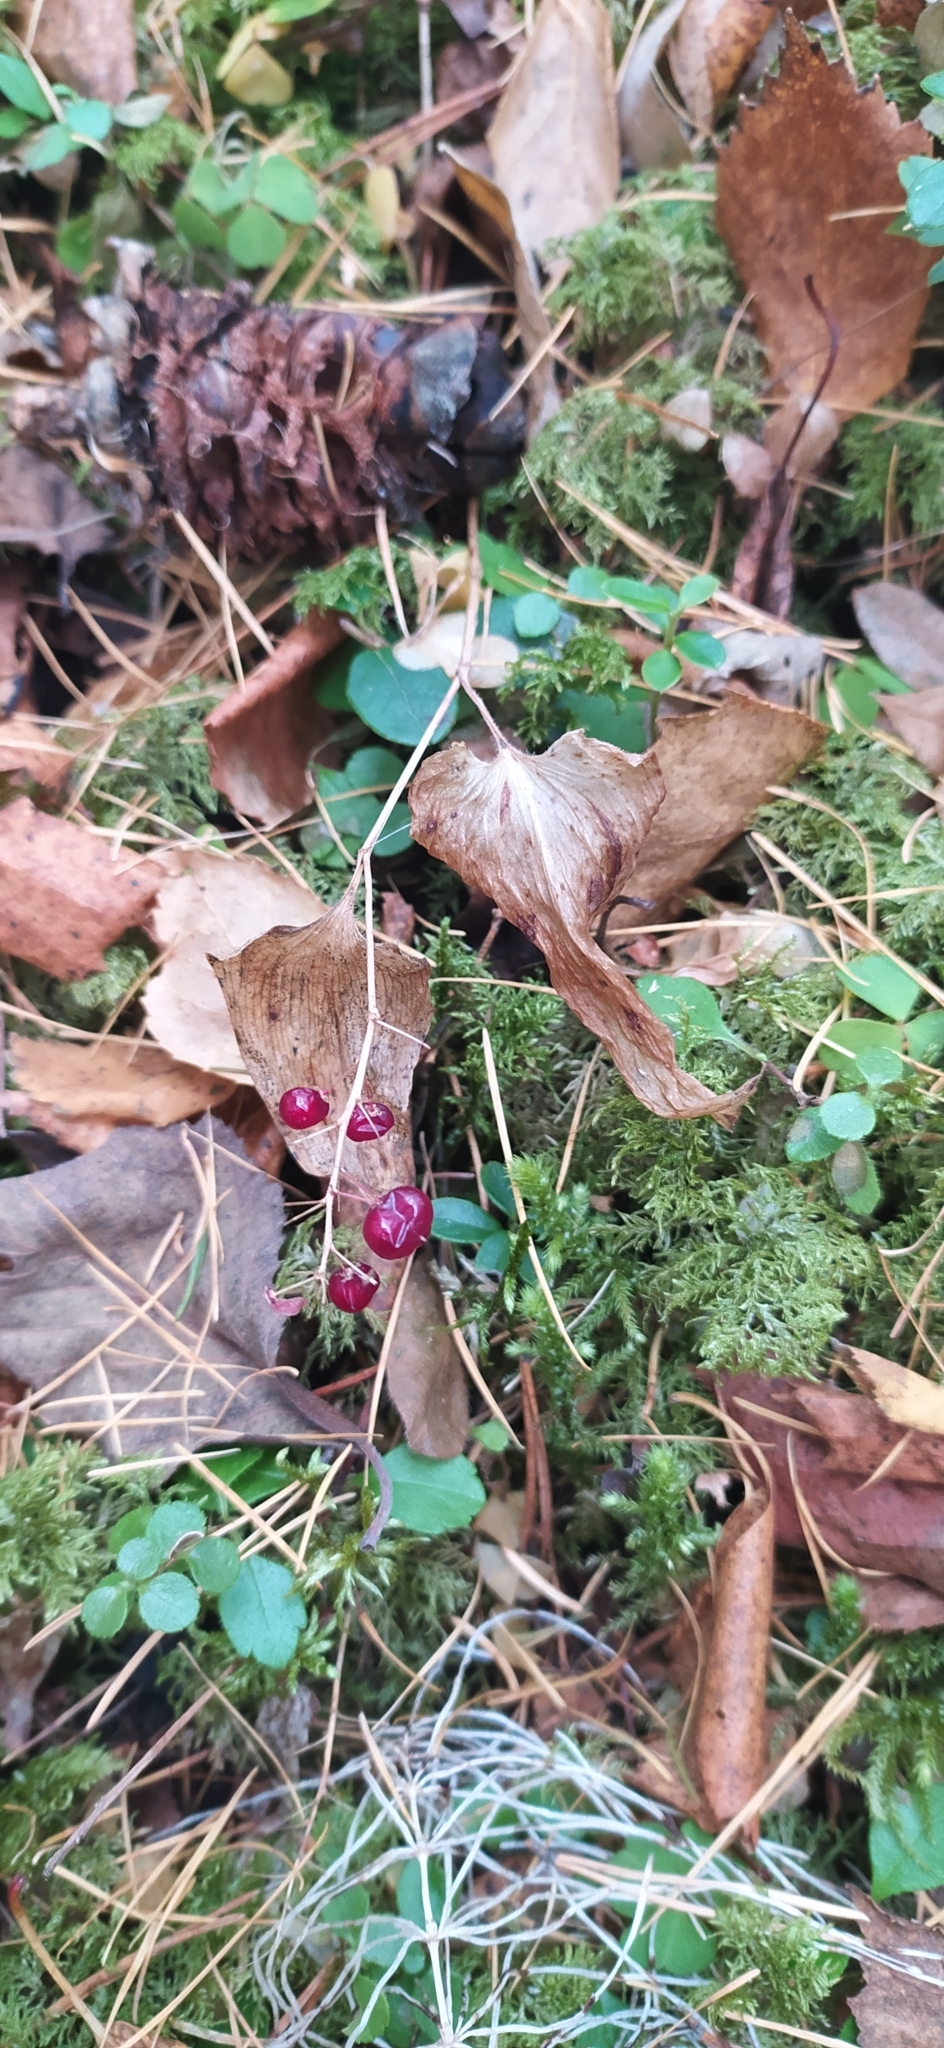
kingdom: Plantae
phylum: Tracheophyta
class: Liliopsida
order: Asparagales
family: Asparagaceae
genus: Maianthemum
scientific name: Maianthemum bifolium
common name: May lily
